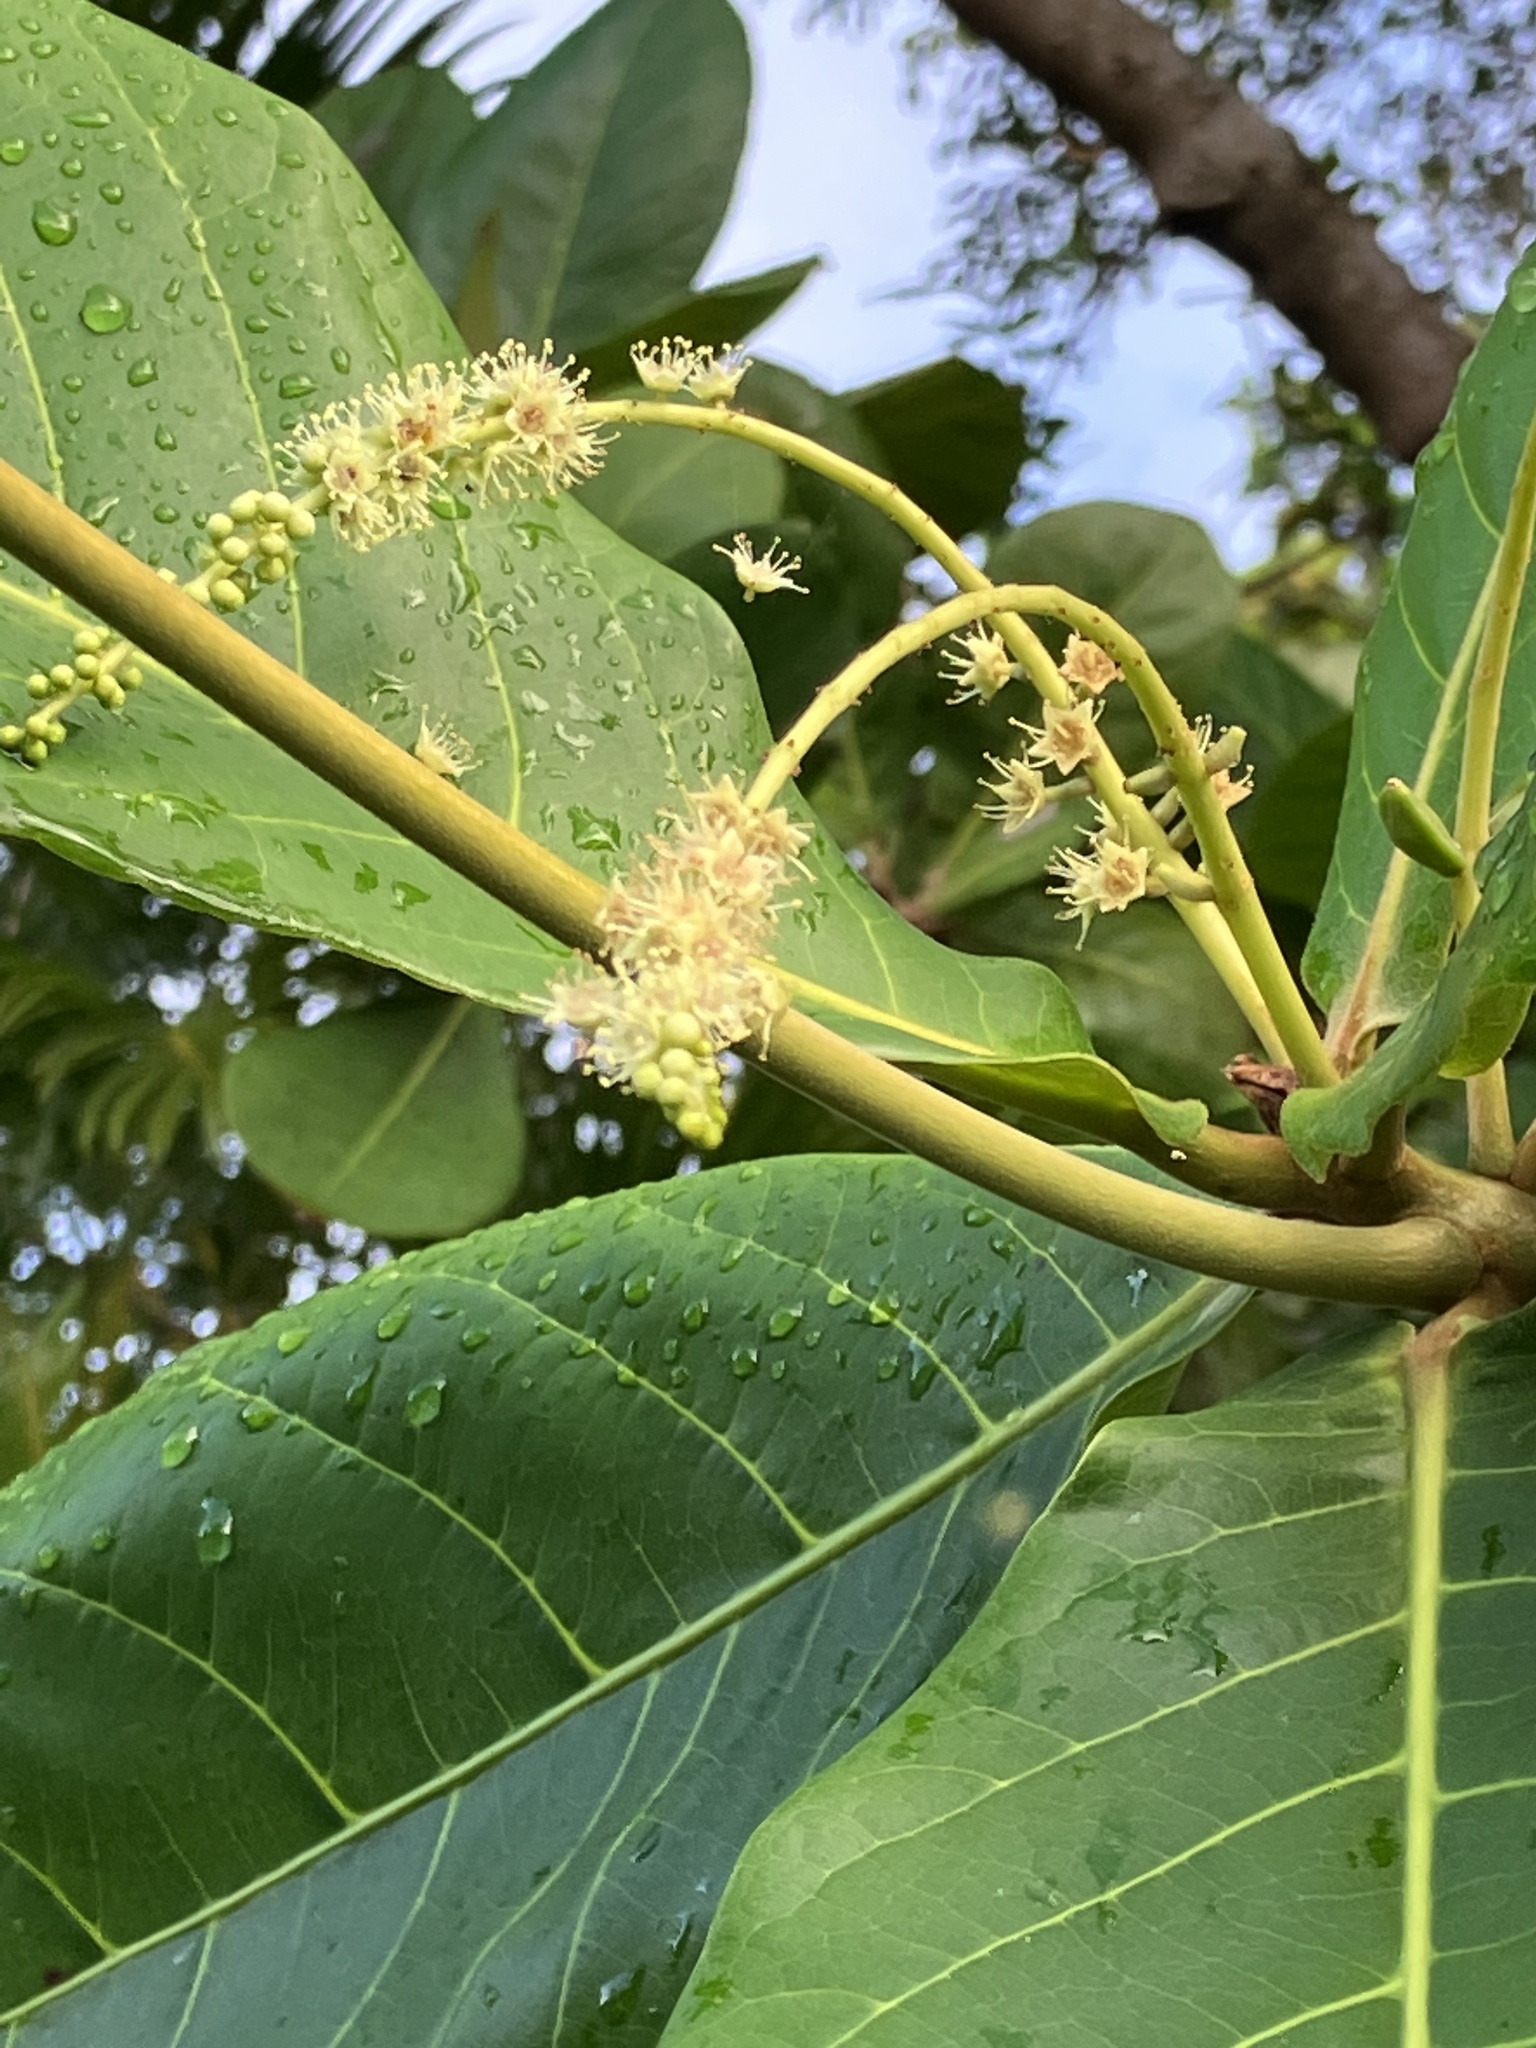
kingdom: Plantae
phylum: Tracheophyta
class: Magnoliopsida
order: Myrtales
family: Combretaceae
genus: Terminalia
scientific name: Terminalia catappa
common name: Tropical almond
